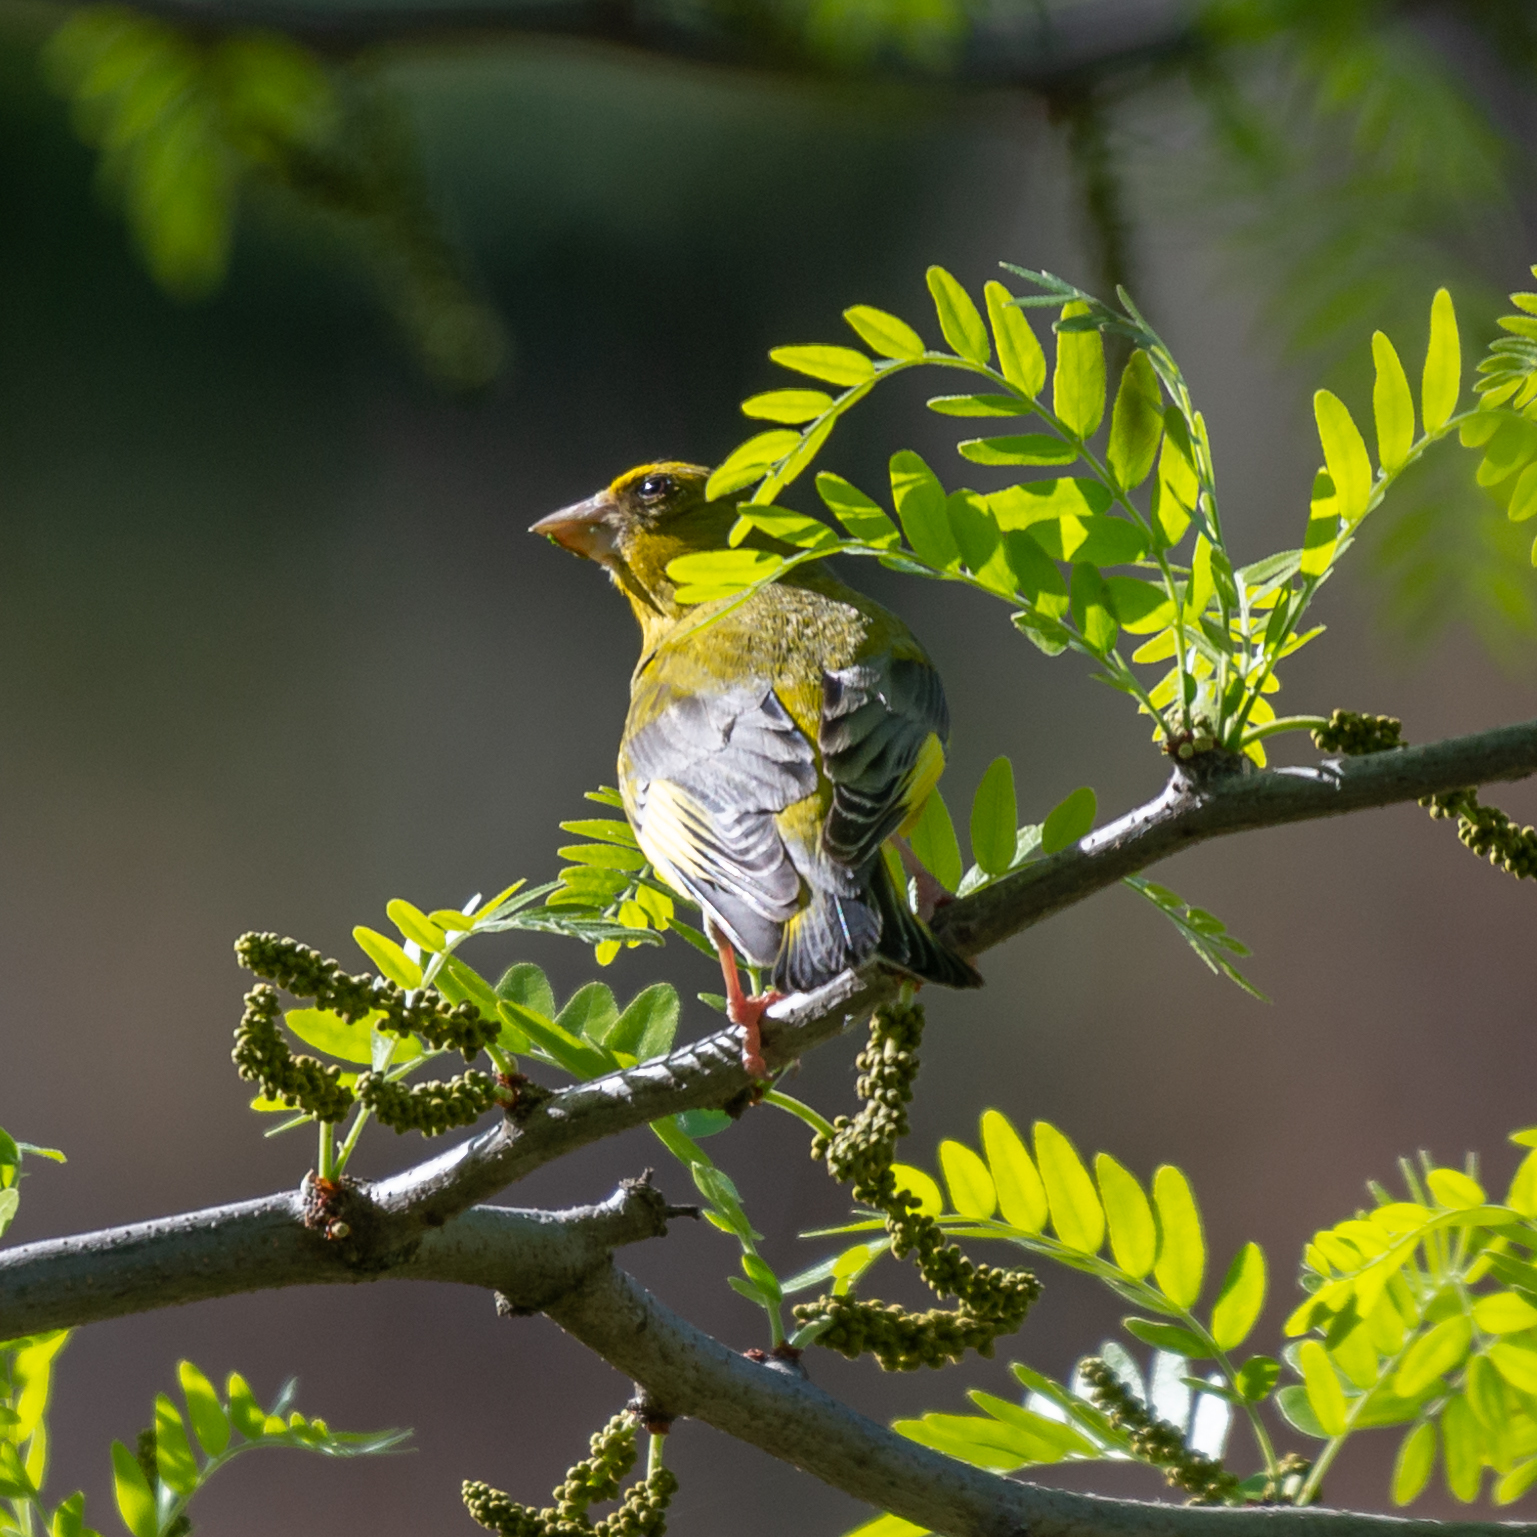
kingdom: Plantae
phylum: Tracheophyta
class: Liliopsida
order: Poales
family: Poaceae
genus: Chloris
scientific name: Chloris chloris
